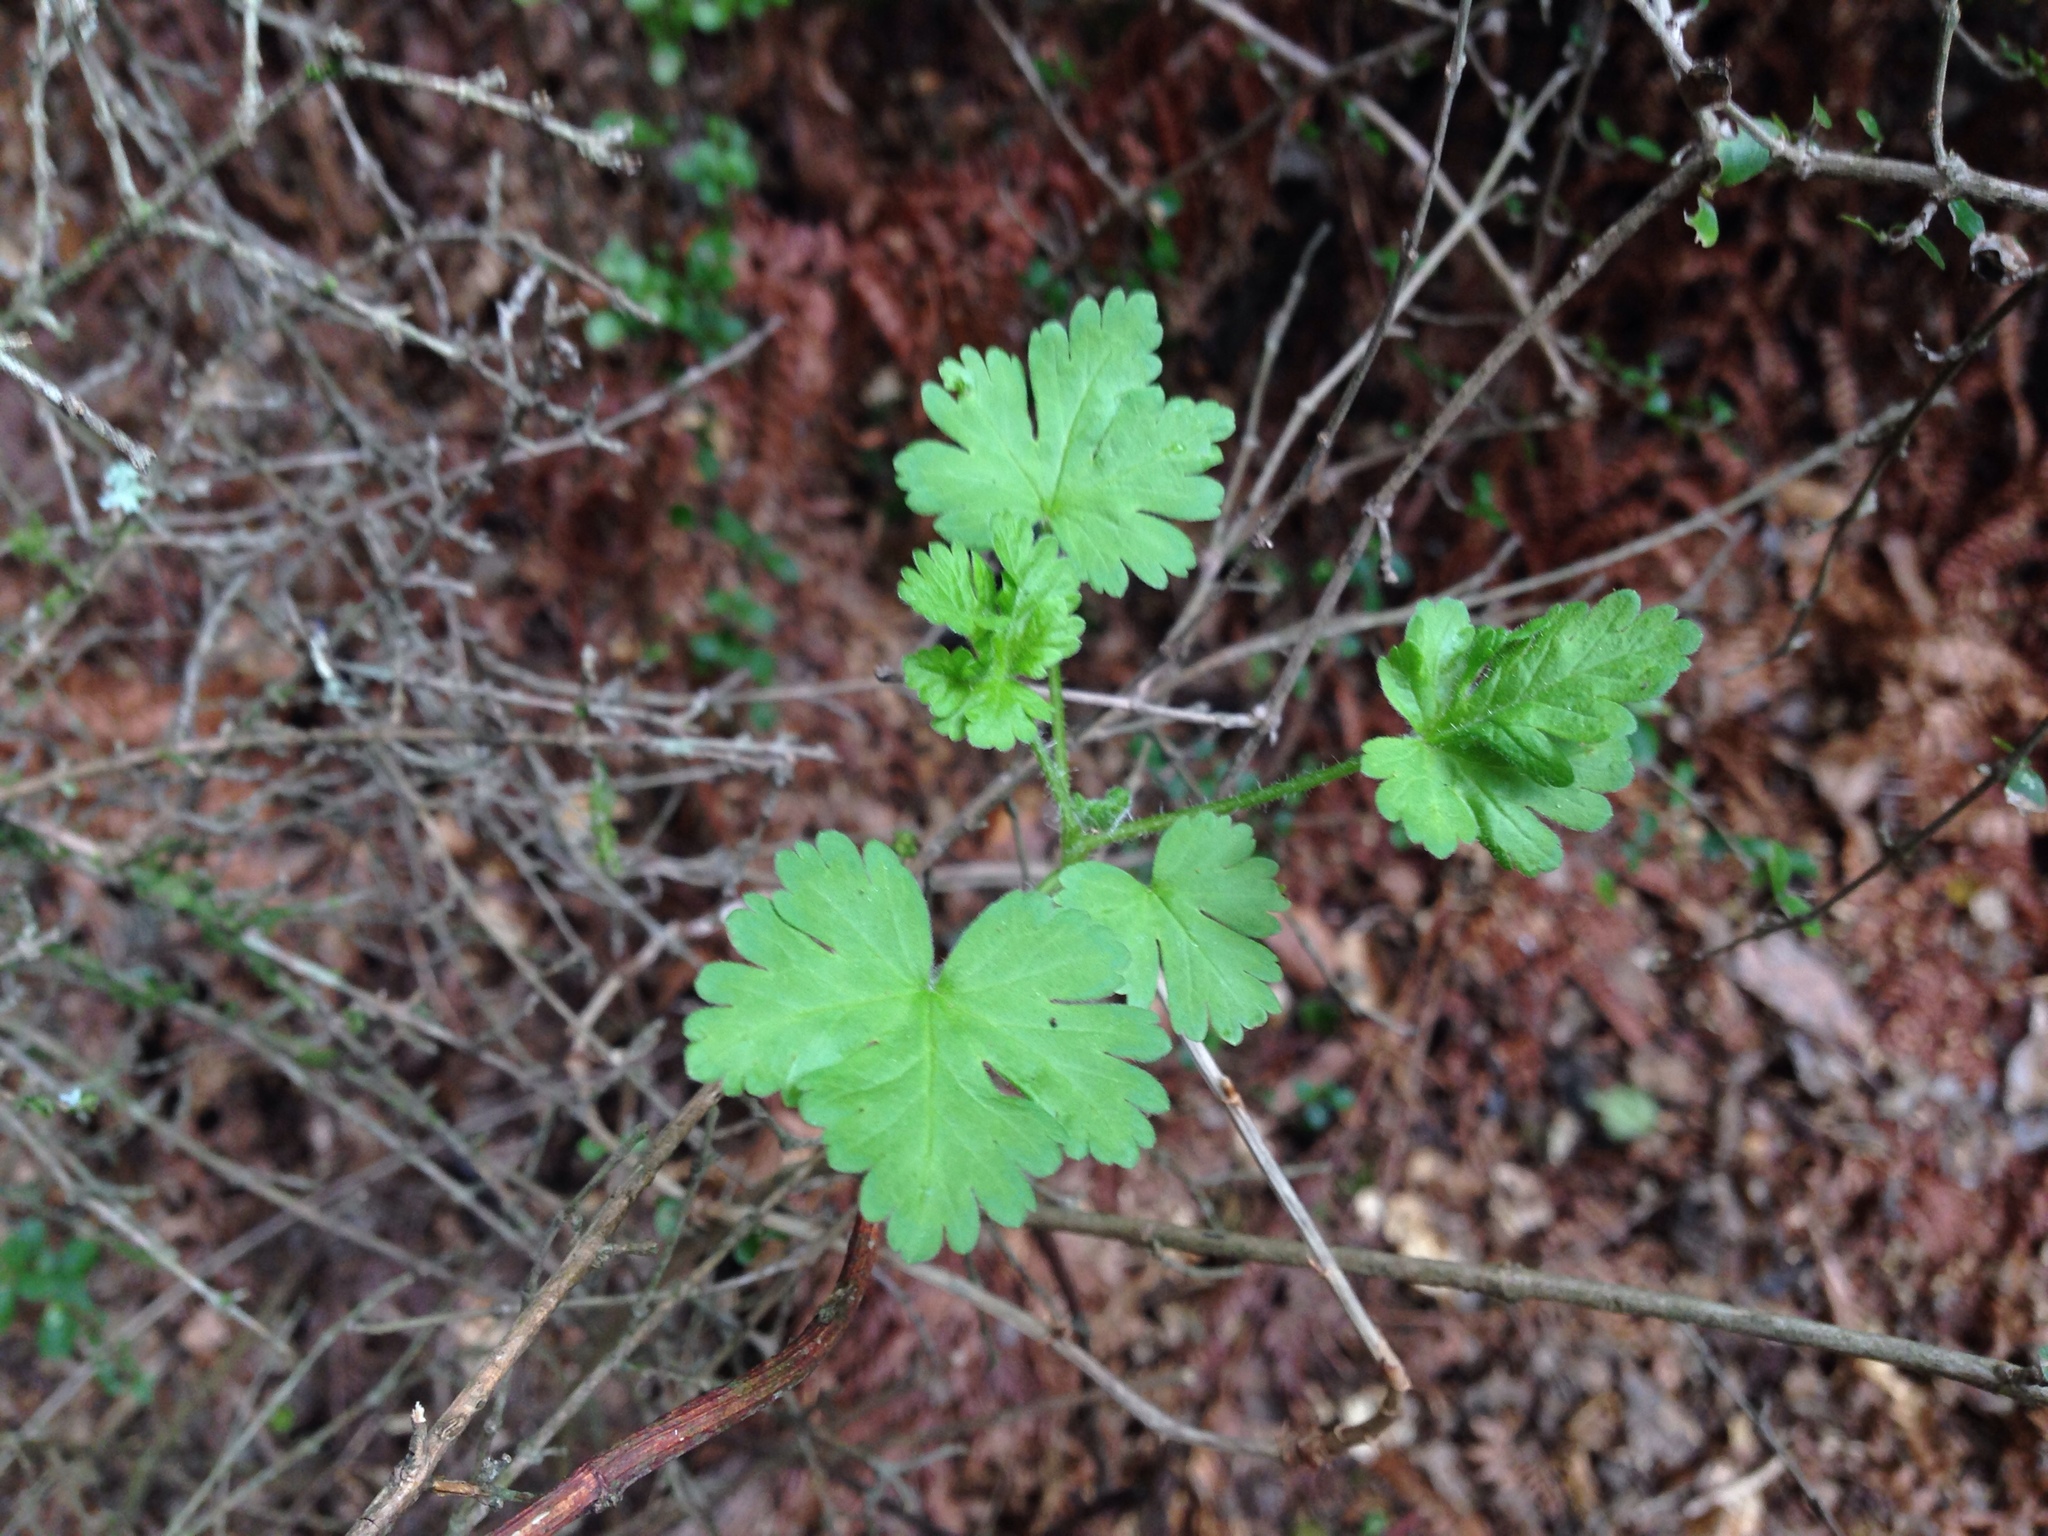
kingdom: Plantae
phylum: Tracheophyta
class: Magnoliopsida
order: Saxifragales
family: Grossulariaceae
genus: Ribes
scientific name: Ribes uva-crispa
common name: Gooseberry
